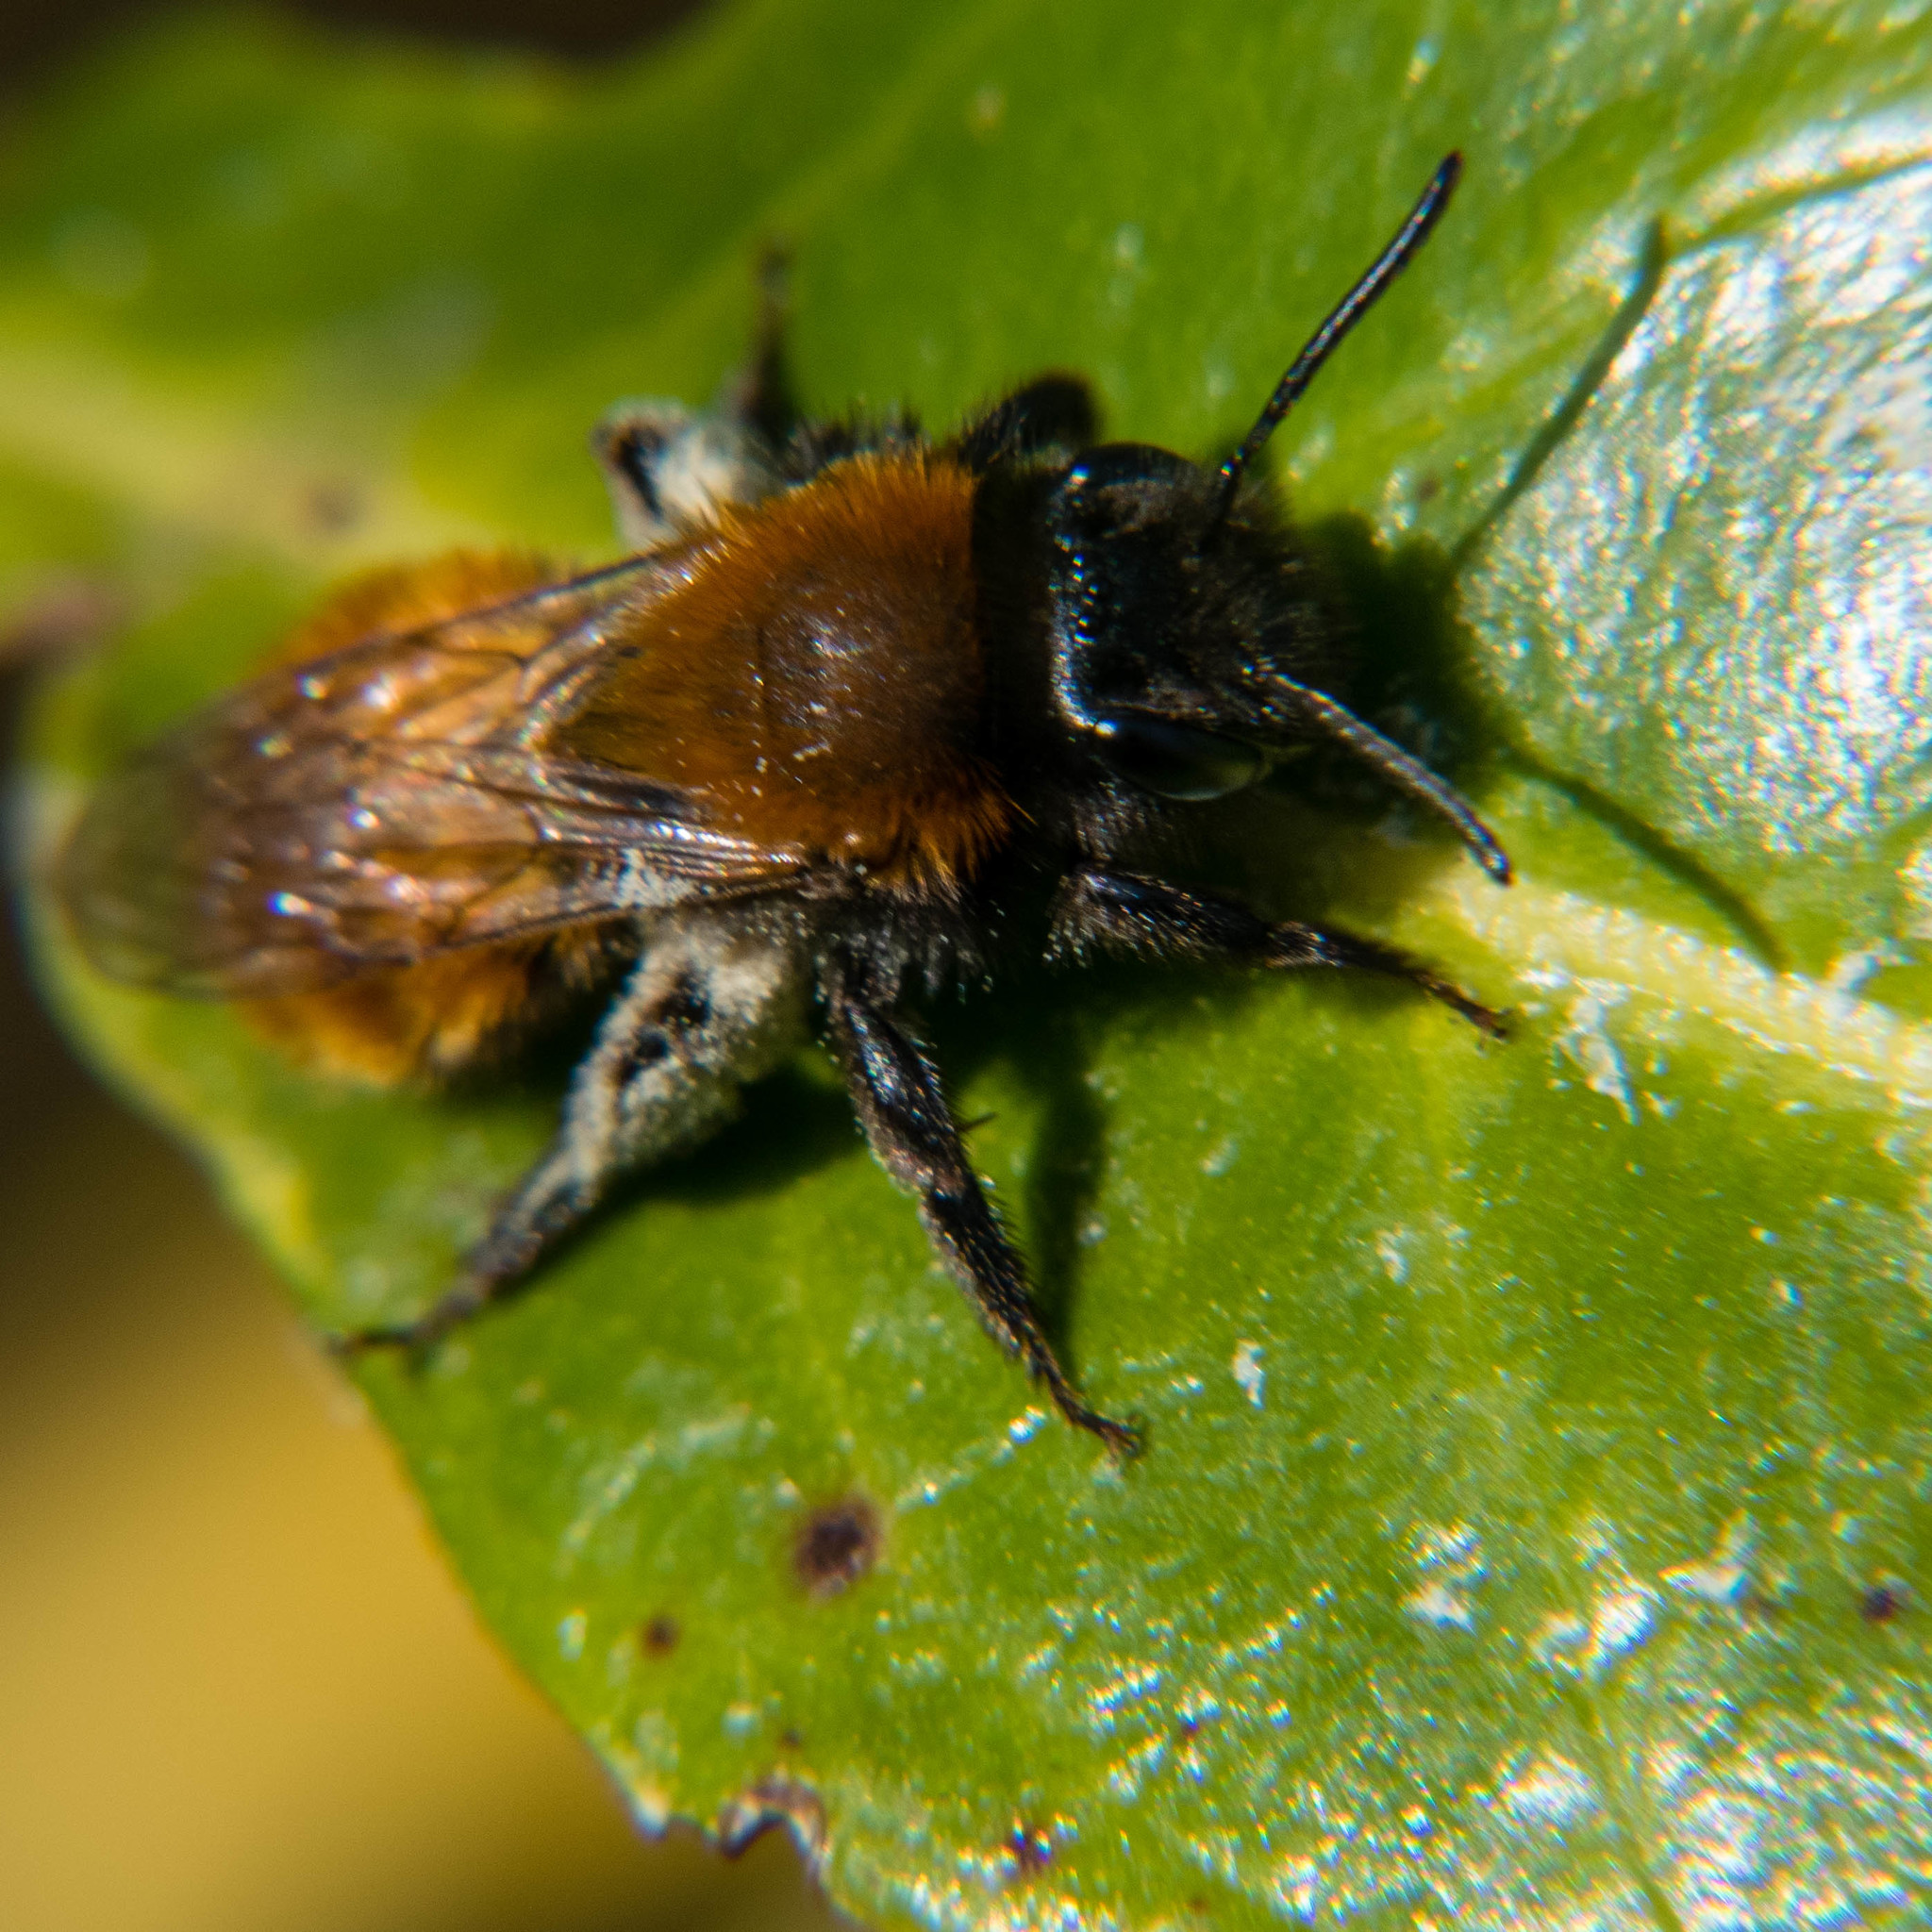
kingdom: Animalia
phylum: Arthropoda
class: Insecta
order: Hymenoptera
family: Andrenidae
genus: Andrena
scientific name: Andrena fulva
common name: Tawny mining bee
